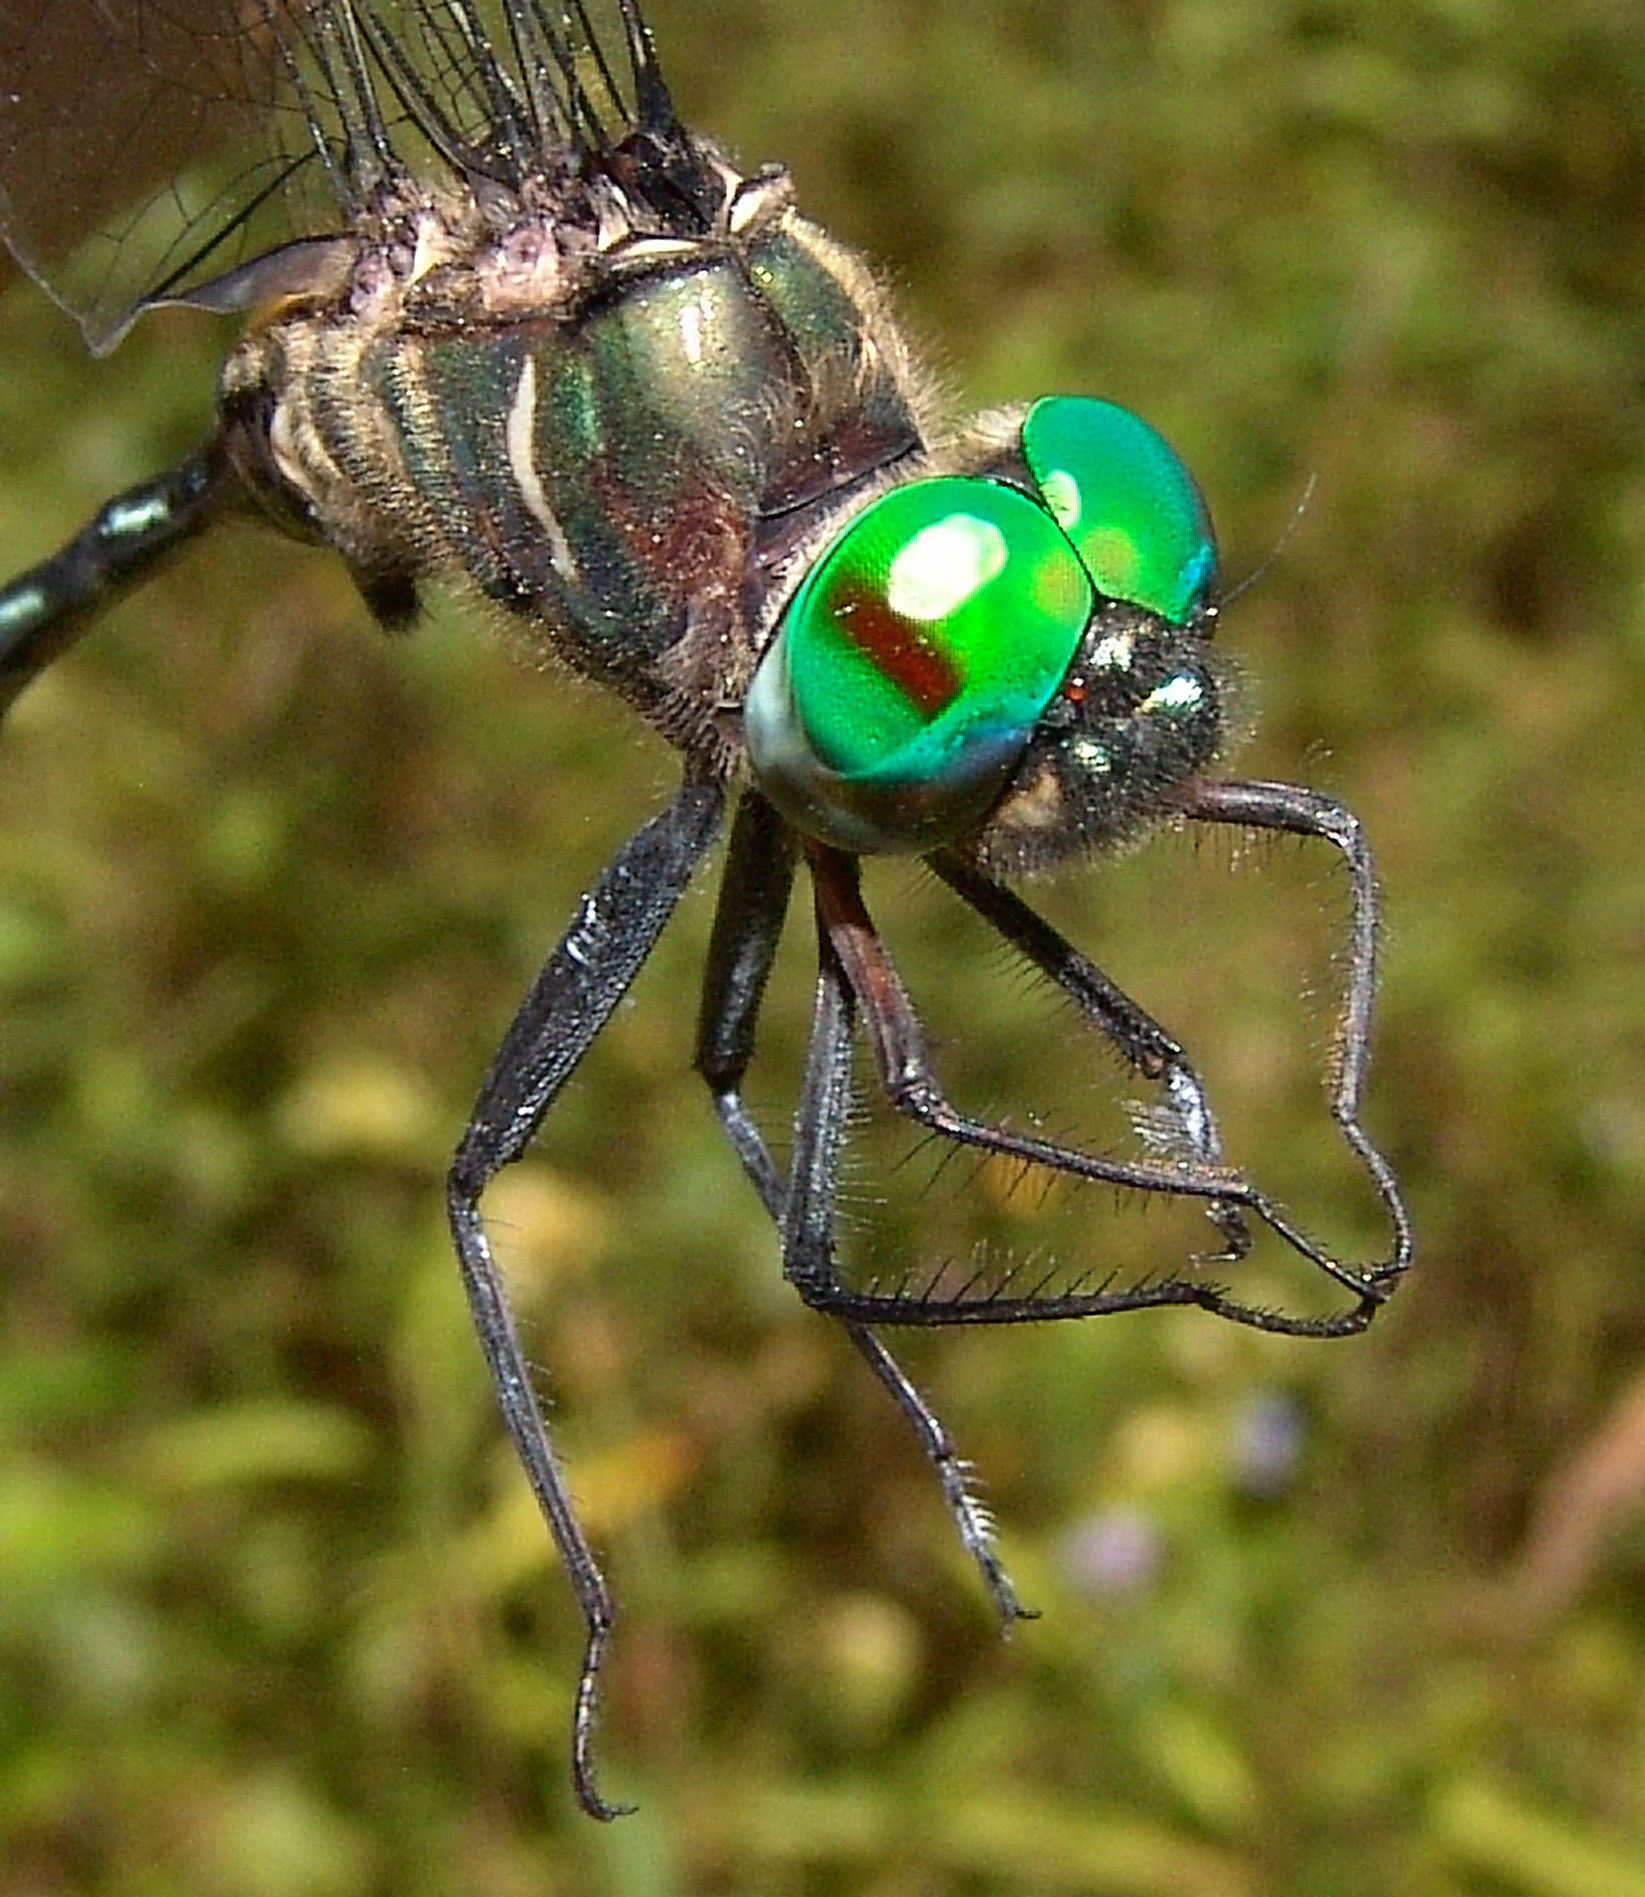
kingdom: Animalia
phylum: Arthropoda
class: Insecta
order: Odonata
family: Corduliidae
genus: Somatochlora
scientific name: Somatochlora filosa
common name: Fine-lined emerald
